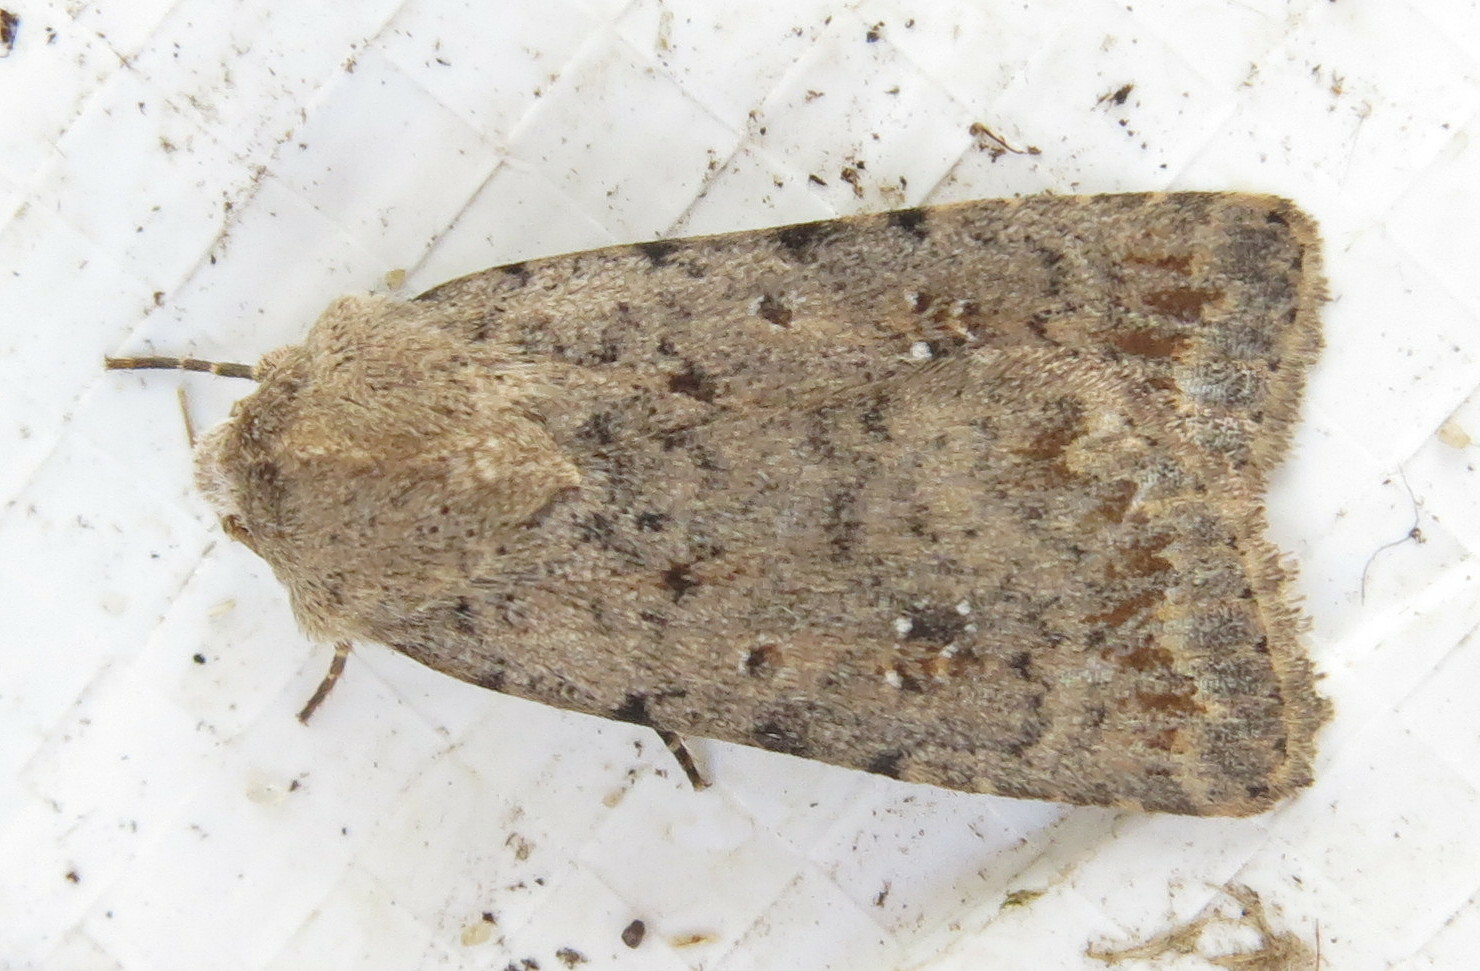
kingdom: Animalia
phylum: Arthropoda
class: Insecta
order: Lepidoptera
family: Noctuidae
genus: Caradrina
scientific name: Caradrina clavipalpis
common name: Pale mottled willow
